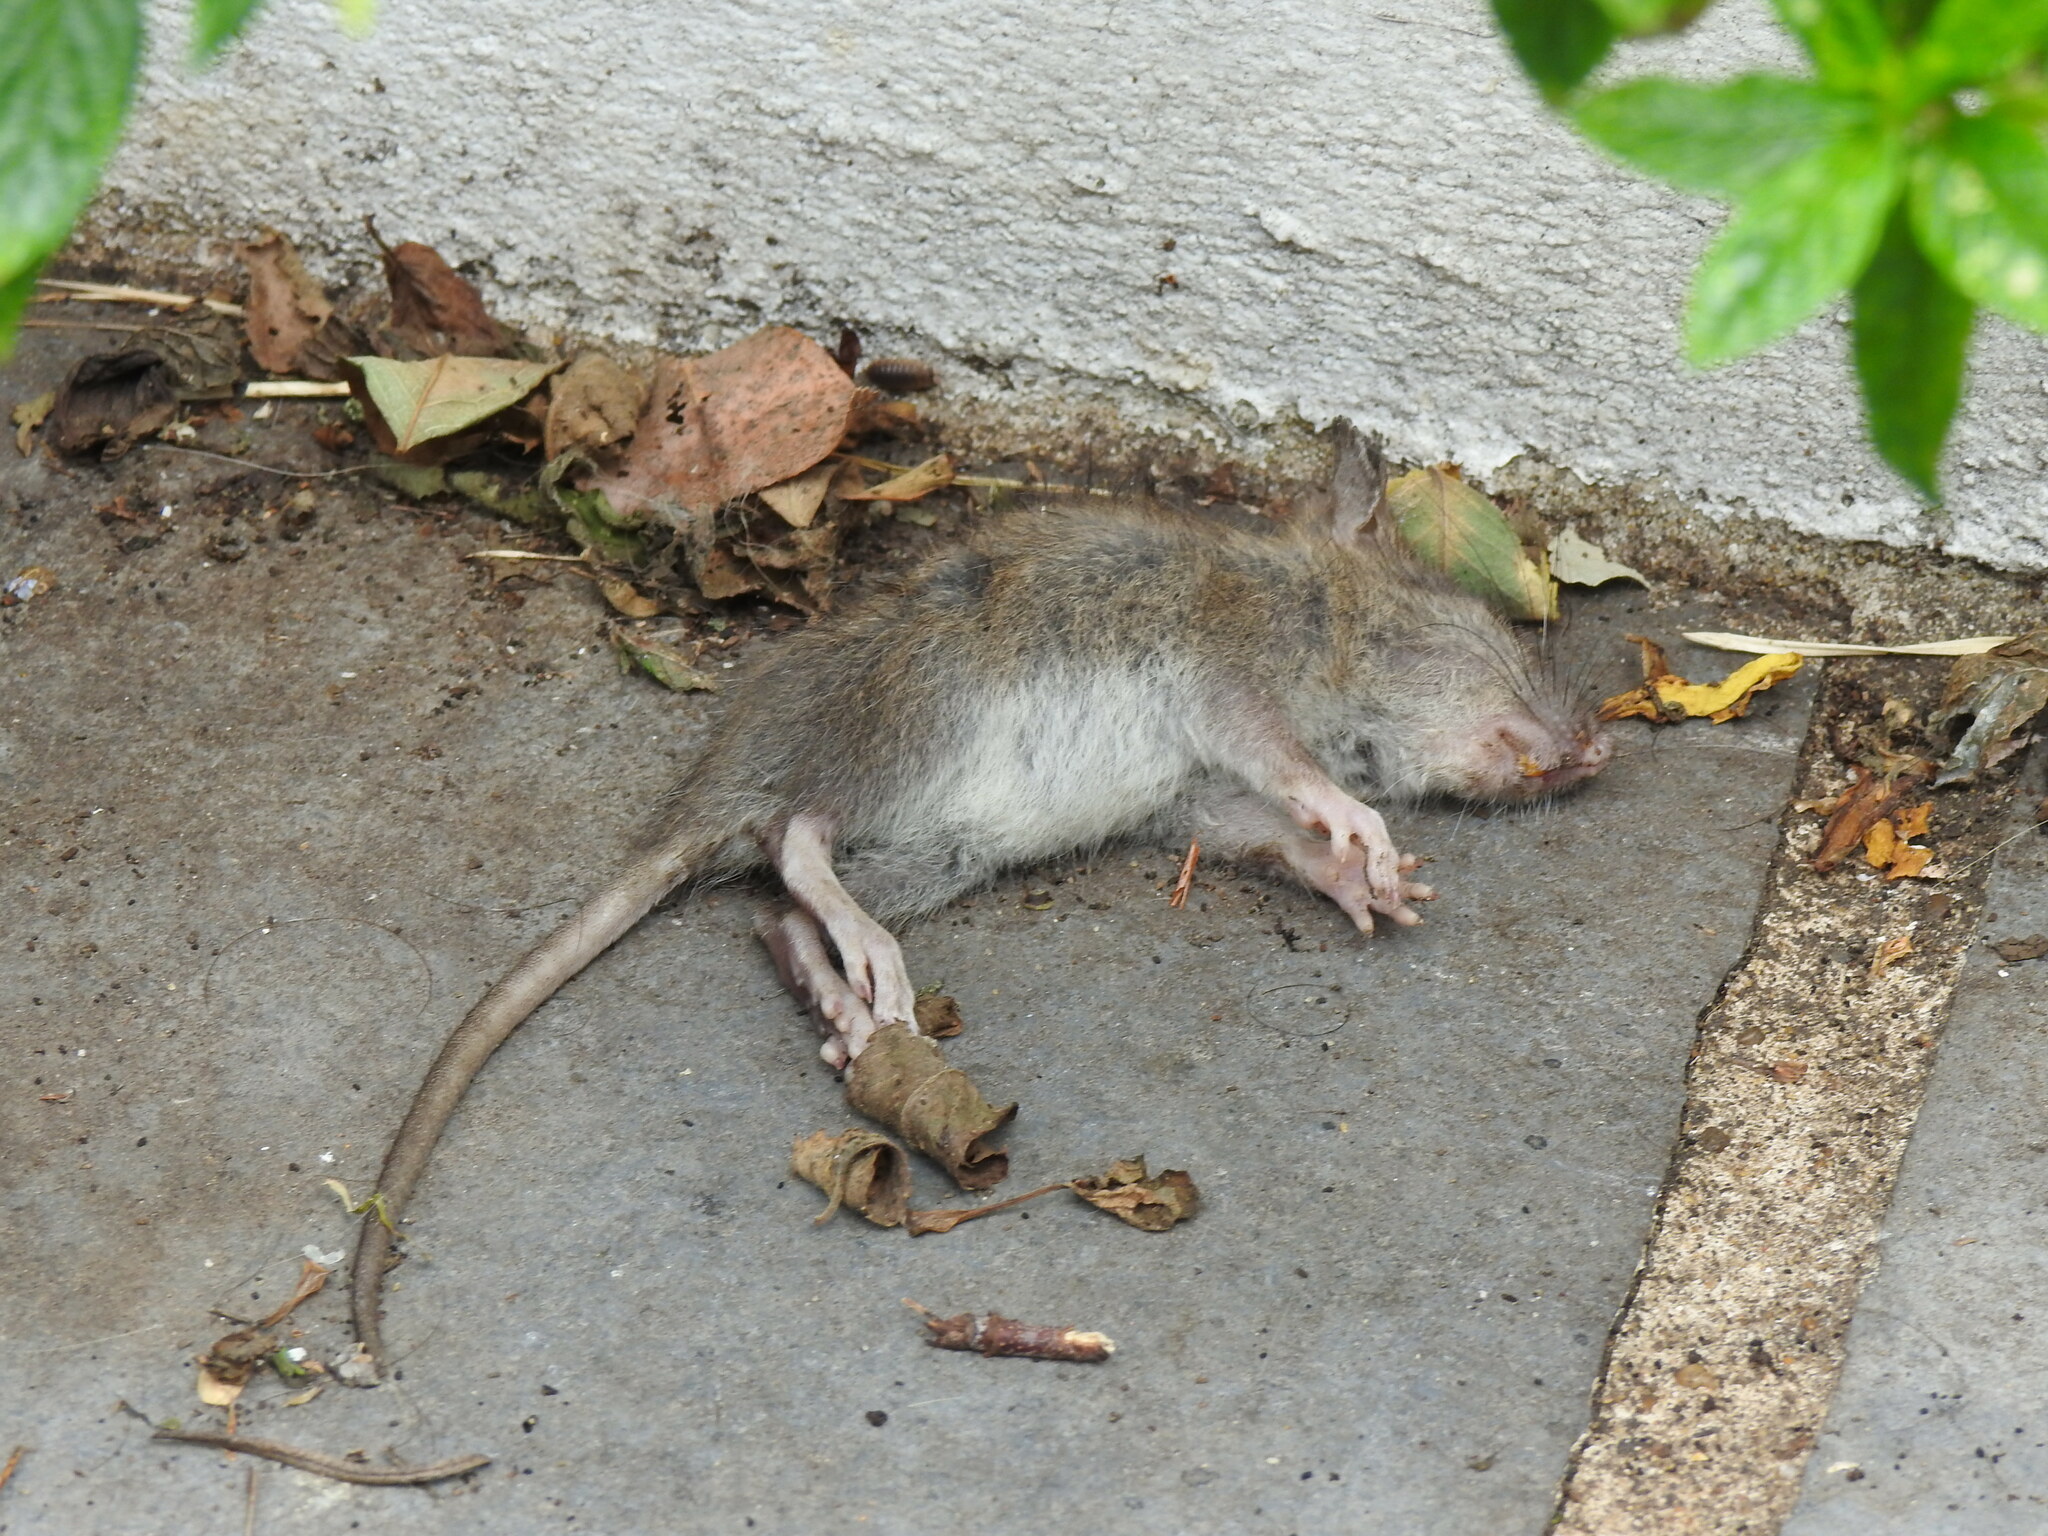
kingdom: Animalia
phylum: Chordata
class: Mammalia
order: Rodentia
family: Muridae
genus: Rattus
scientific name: Rattus norvegicus
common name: Brown rat
